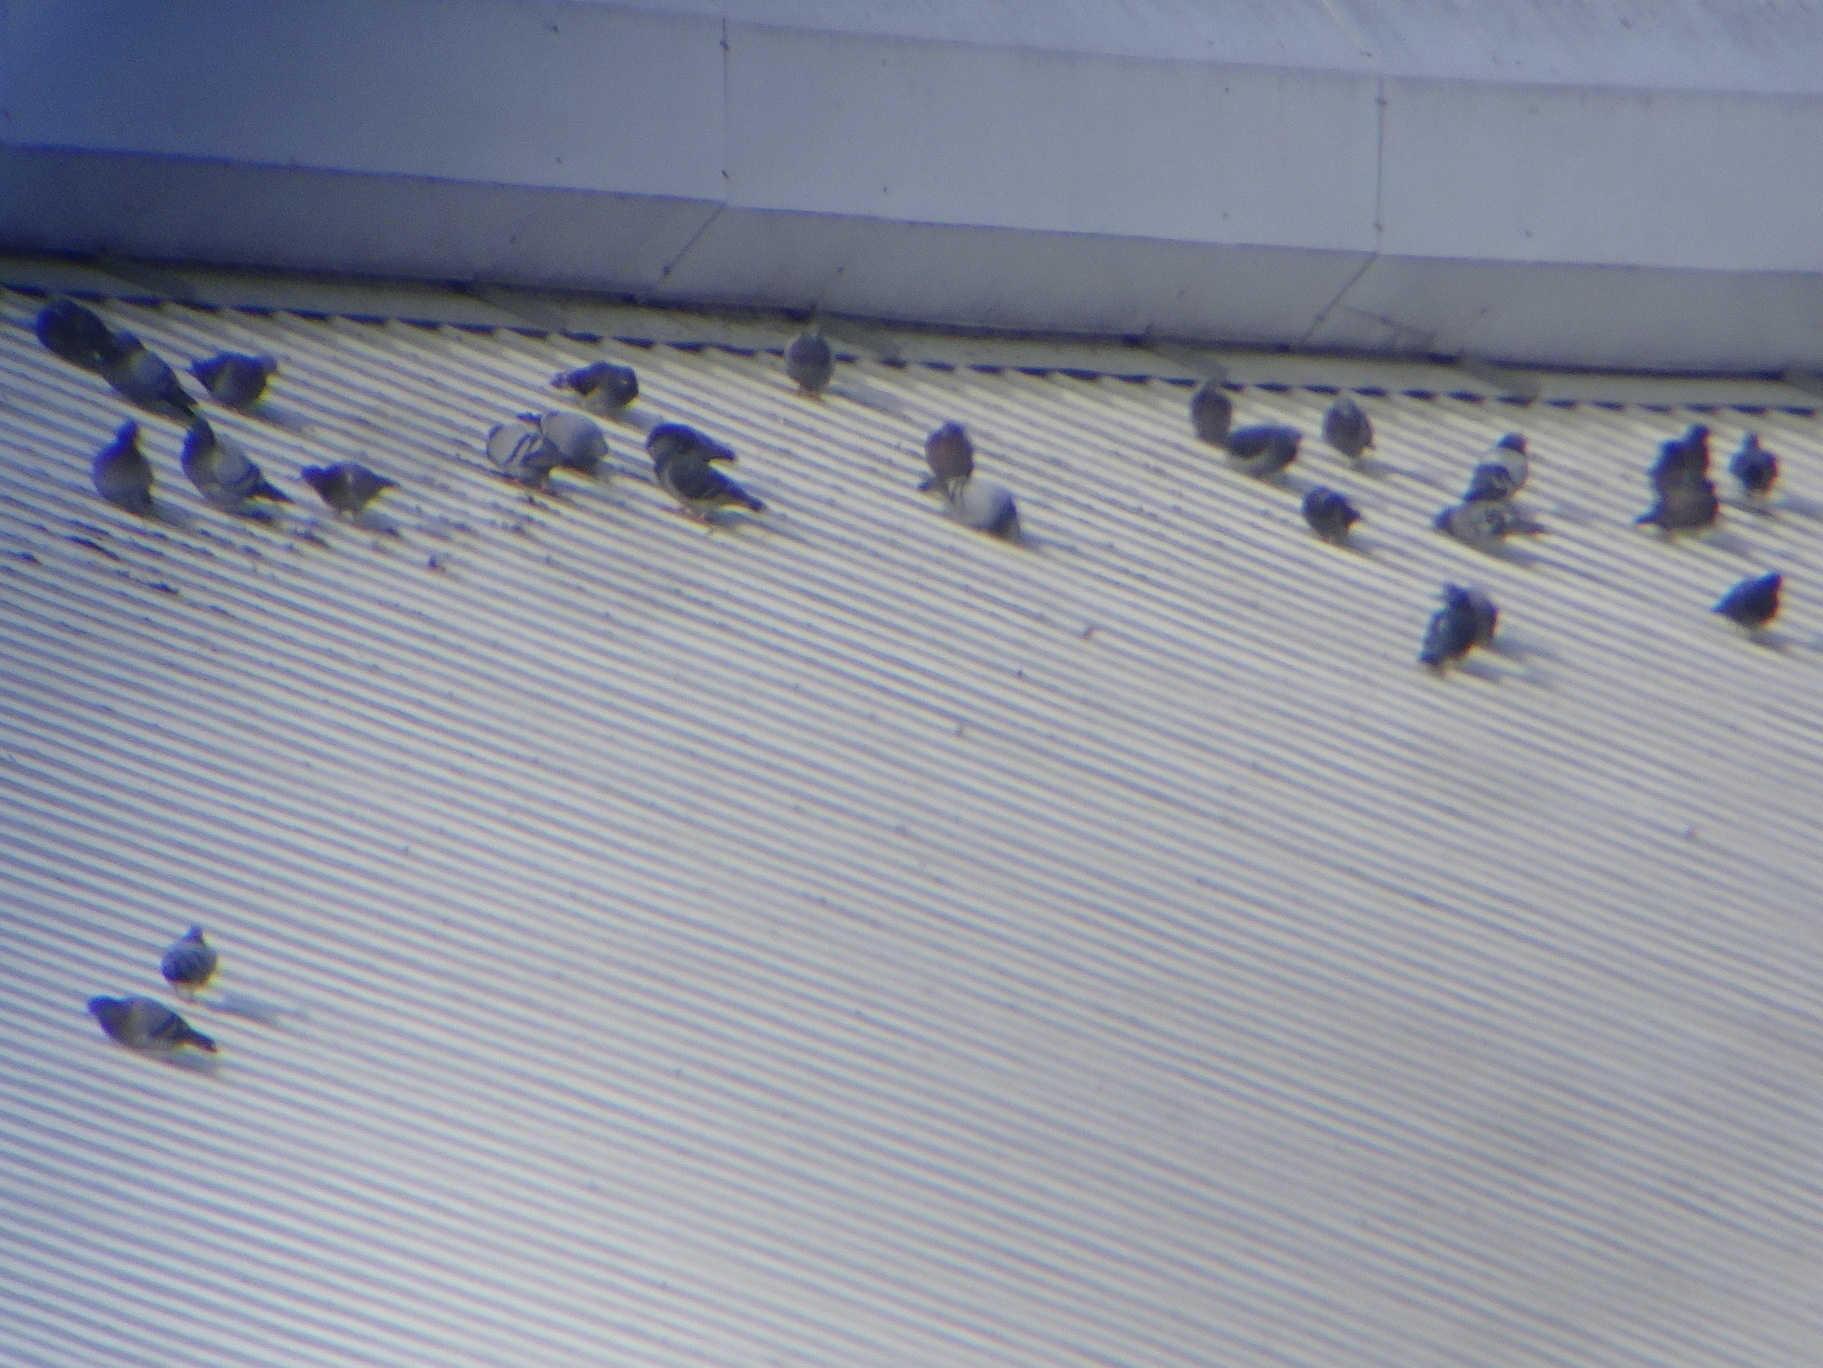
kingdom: Animalia
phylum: Chordata
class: Aves
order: Columbiformes
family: Columbidae
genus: Columba
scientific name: Columba livia
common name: Rock pigeon
